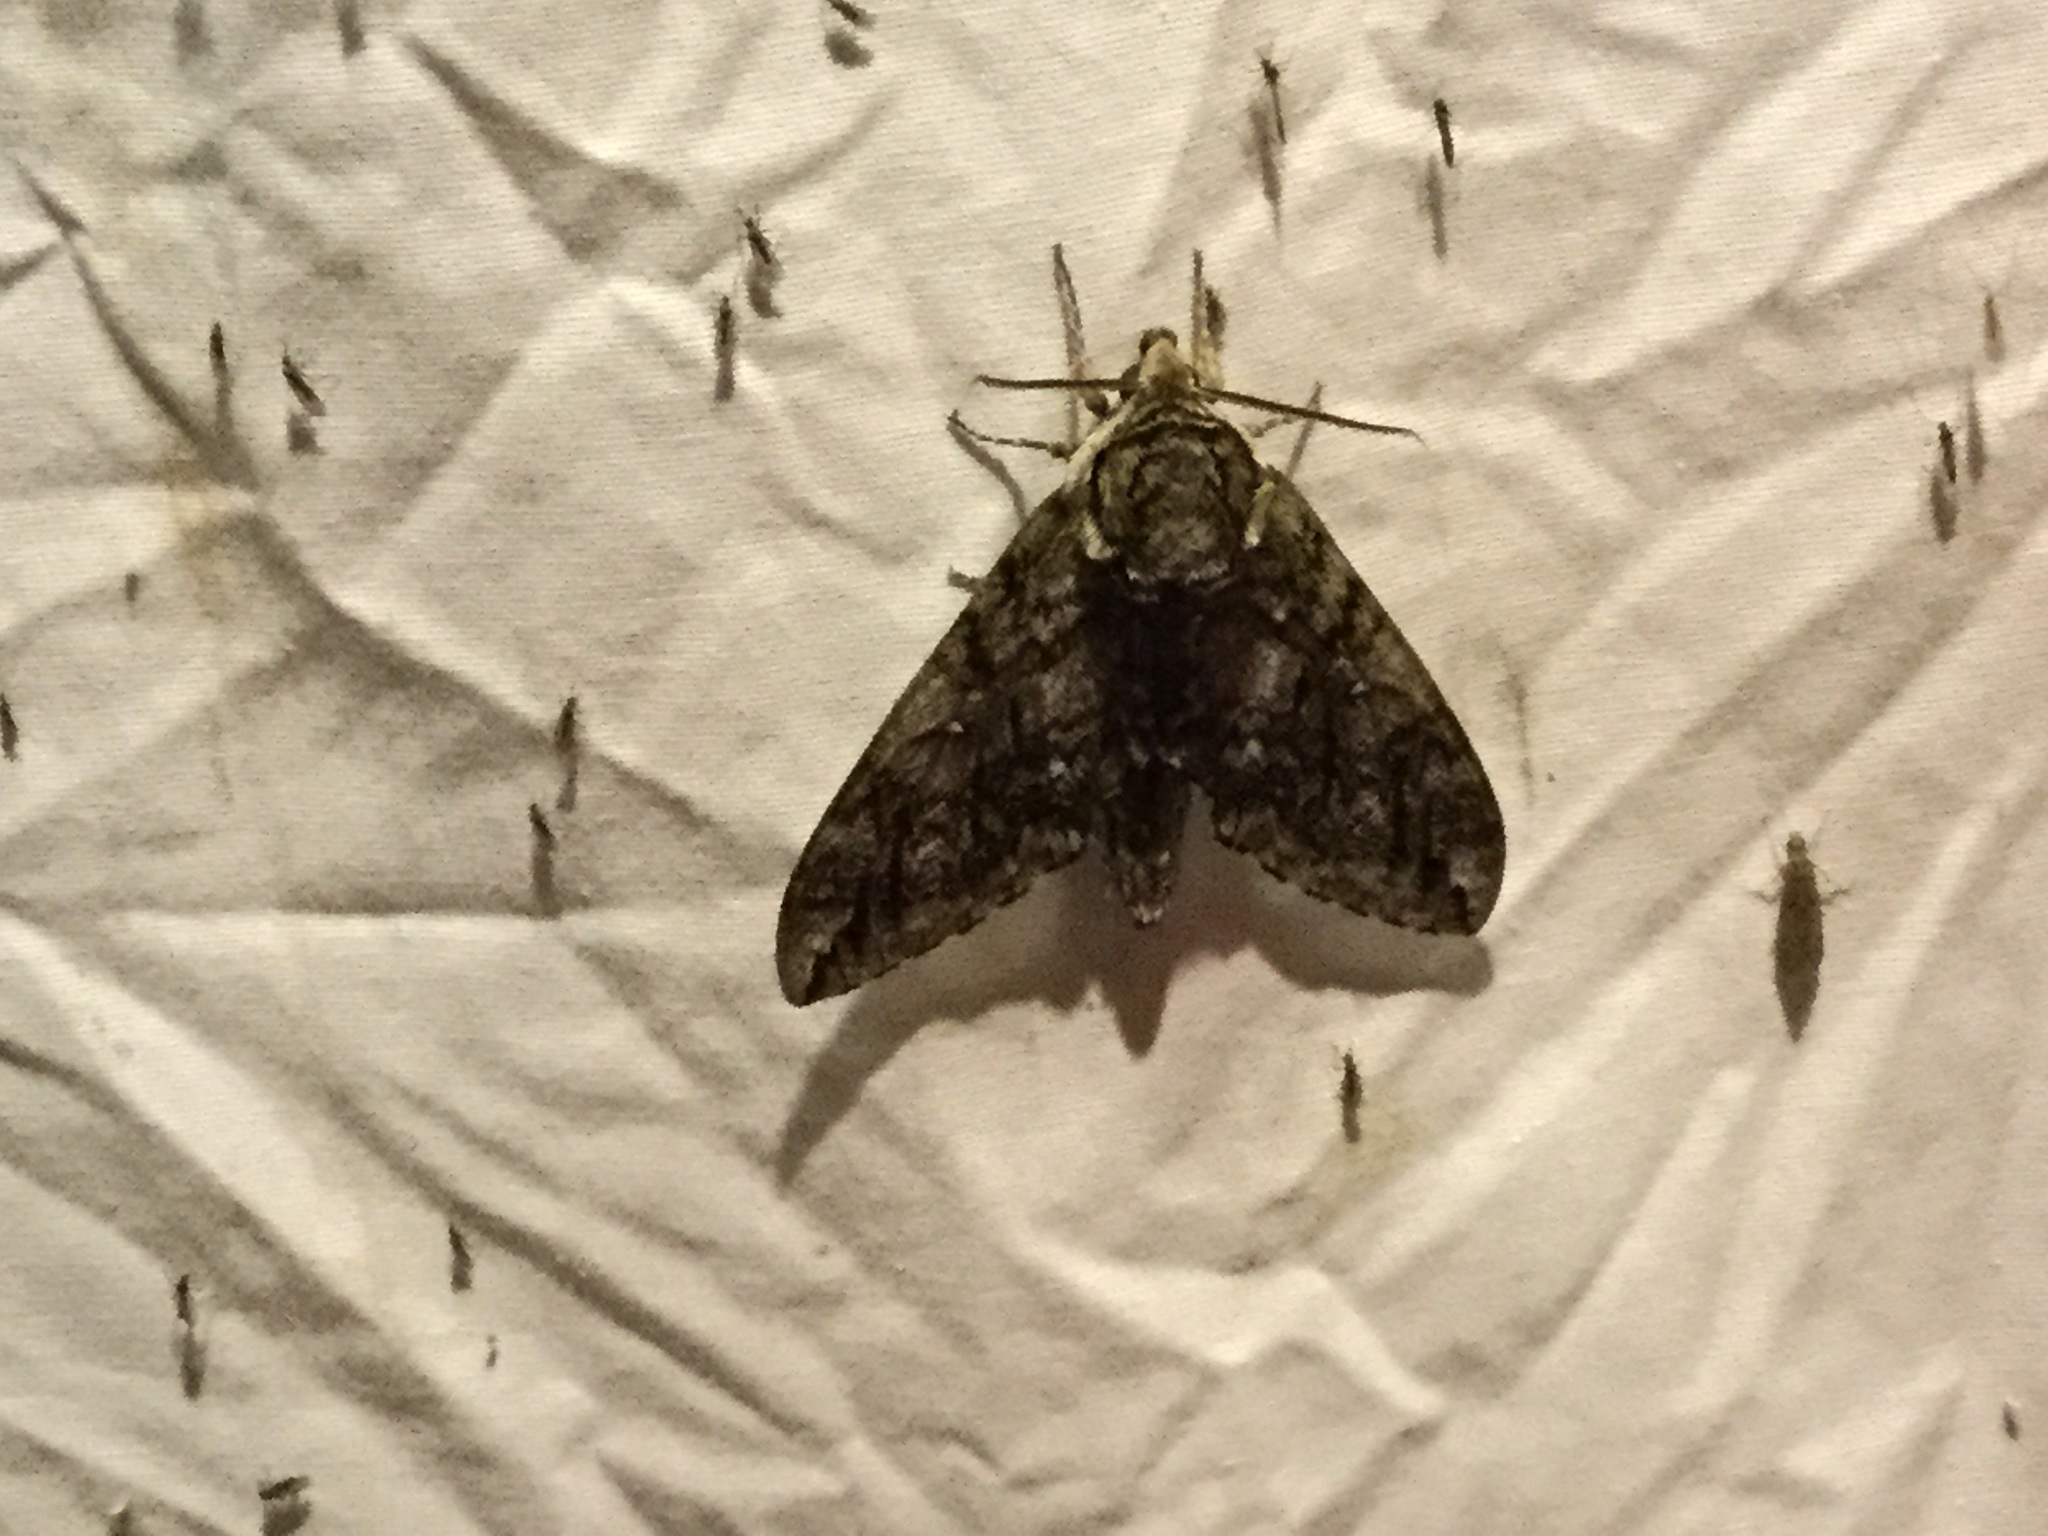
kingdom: Animalia
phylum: Arthropoda
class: Insecta
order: Lepidoptera
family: Sphingidae
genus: Ceratomia
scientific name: Ceratomia undulosa
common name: Waved sphinx
